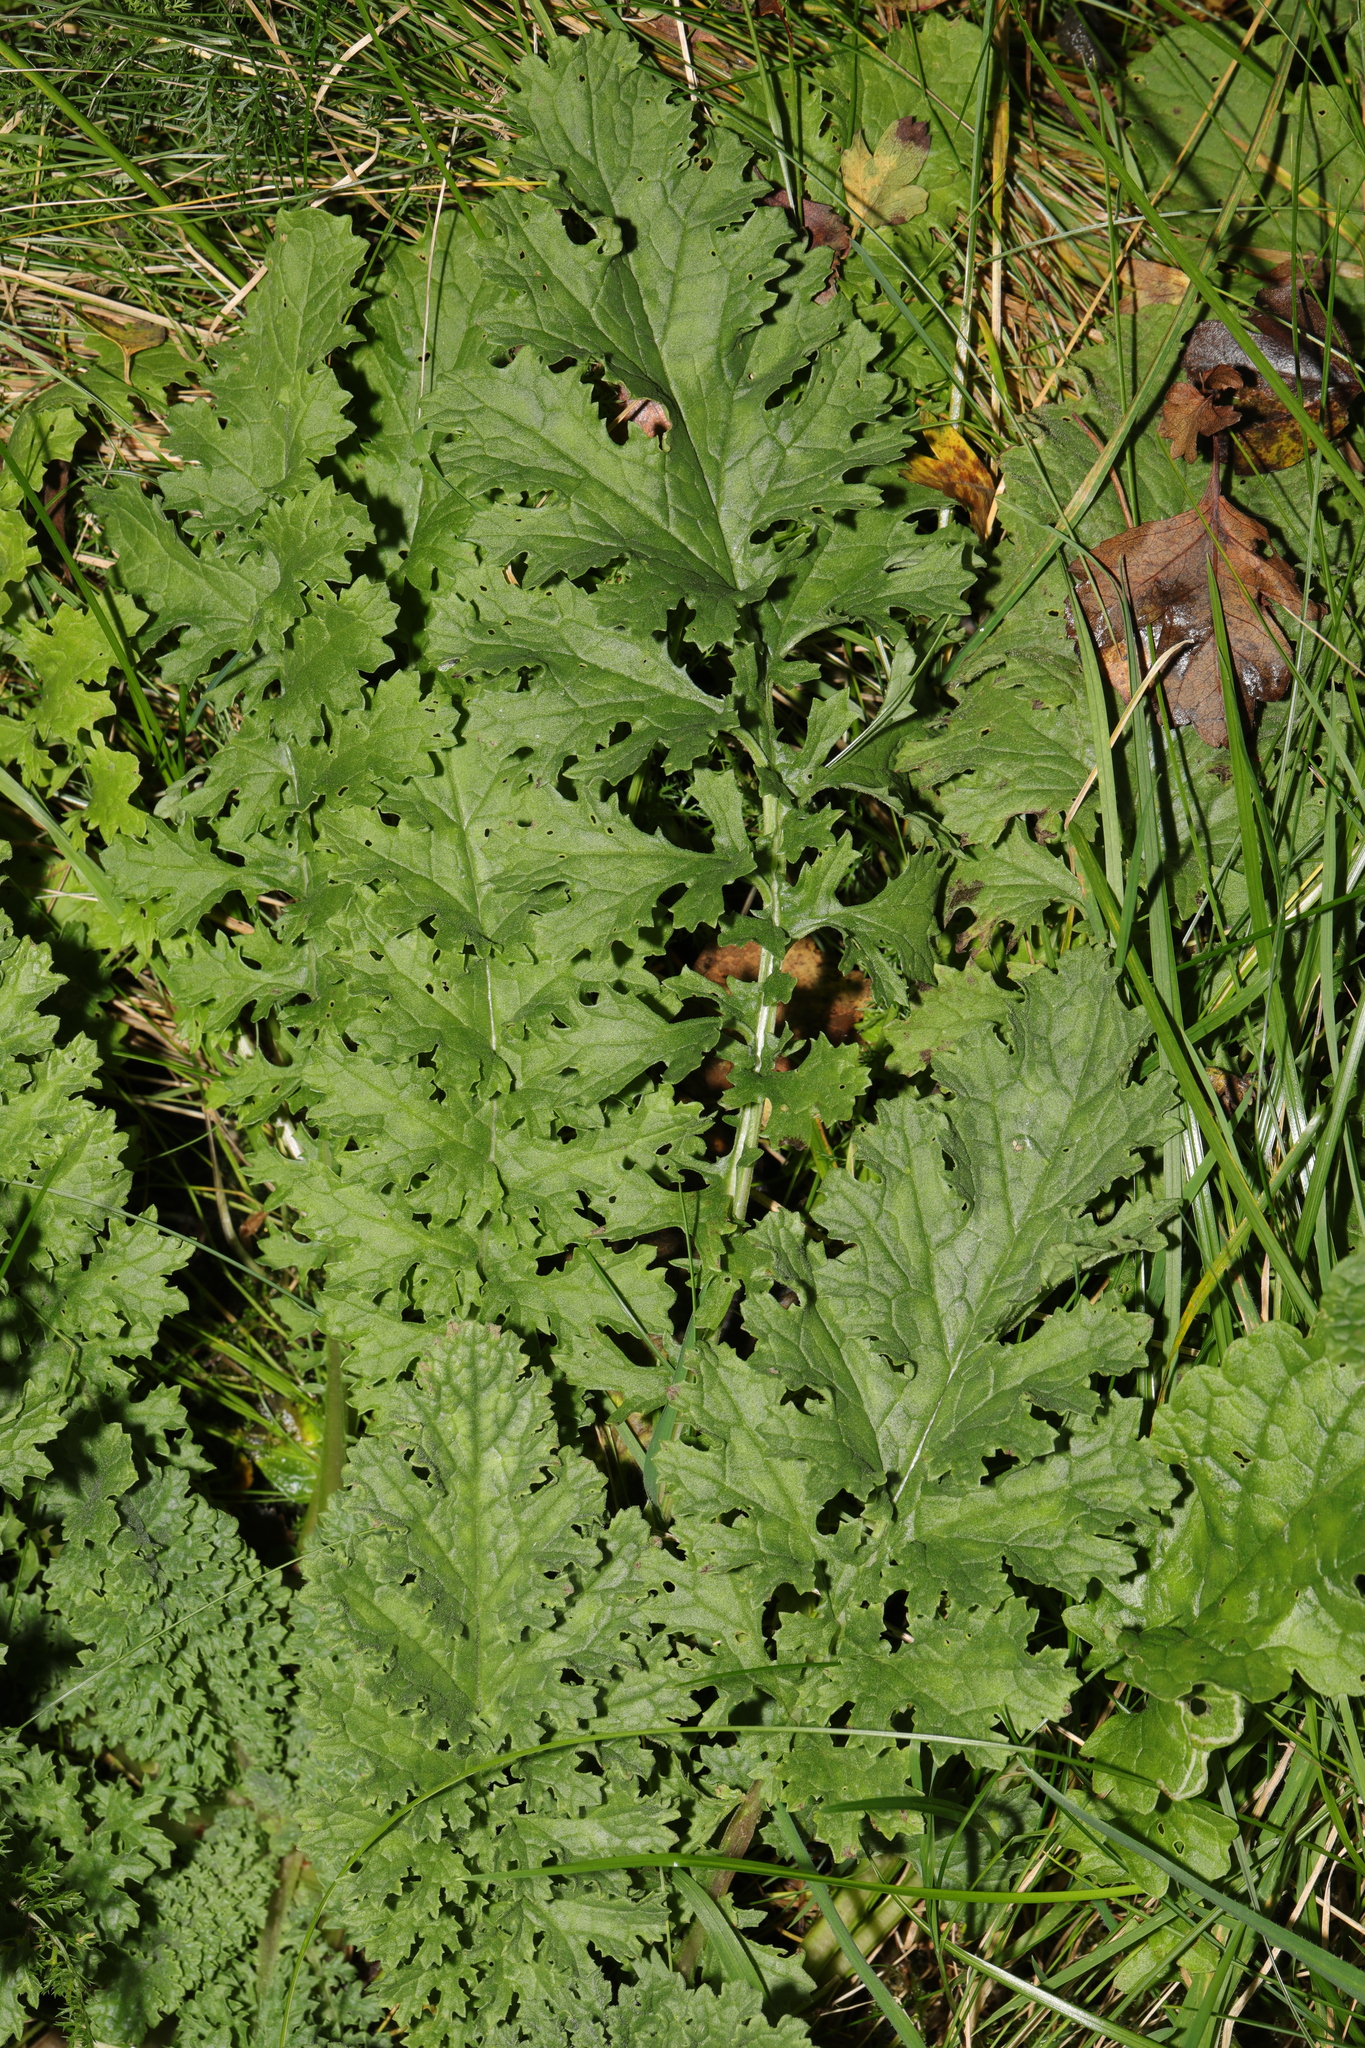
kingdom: Plantae
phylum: Tracheophyta
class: Magnoliopsida
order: Asterales
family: Asteraceae
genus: Jacobaea
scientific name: Jacobaea vulgaris
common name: Stinking willie
